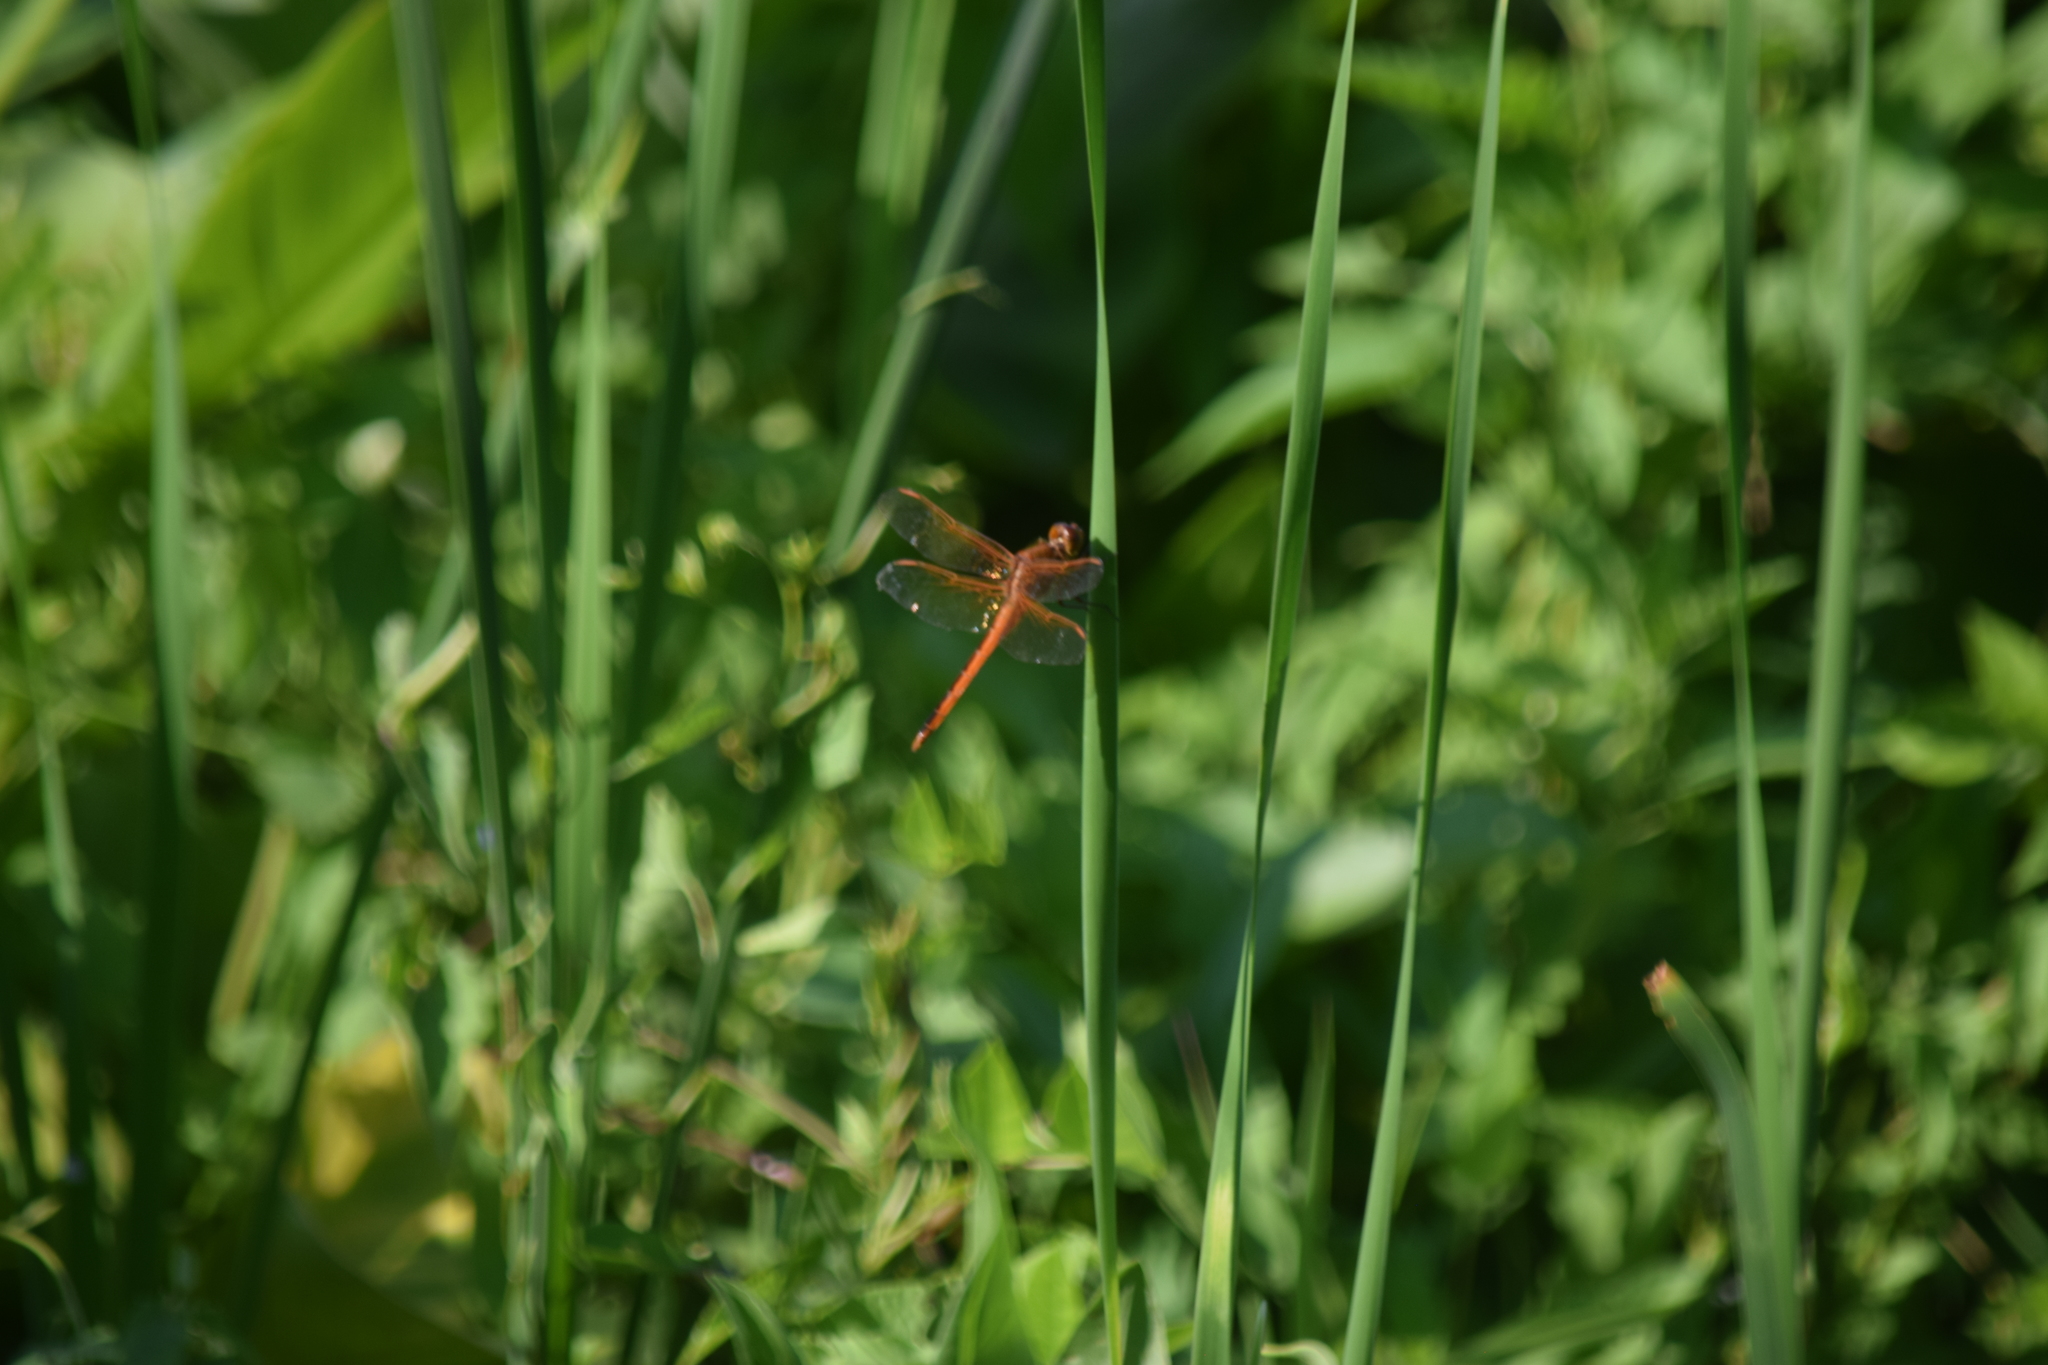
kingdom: Animalia
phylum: Arthropoda
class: Insecta
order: Odonata
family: Libellulidae
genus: Libellula
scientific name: Libellula needhami
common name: Needham's skimmer
